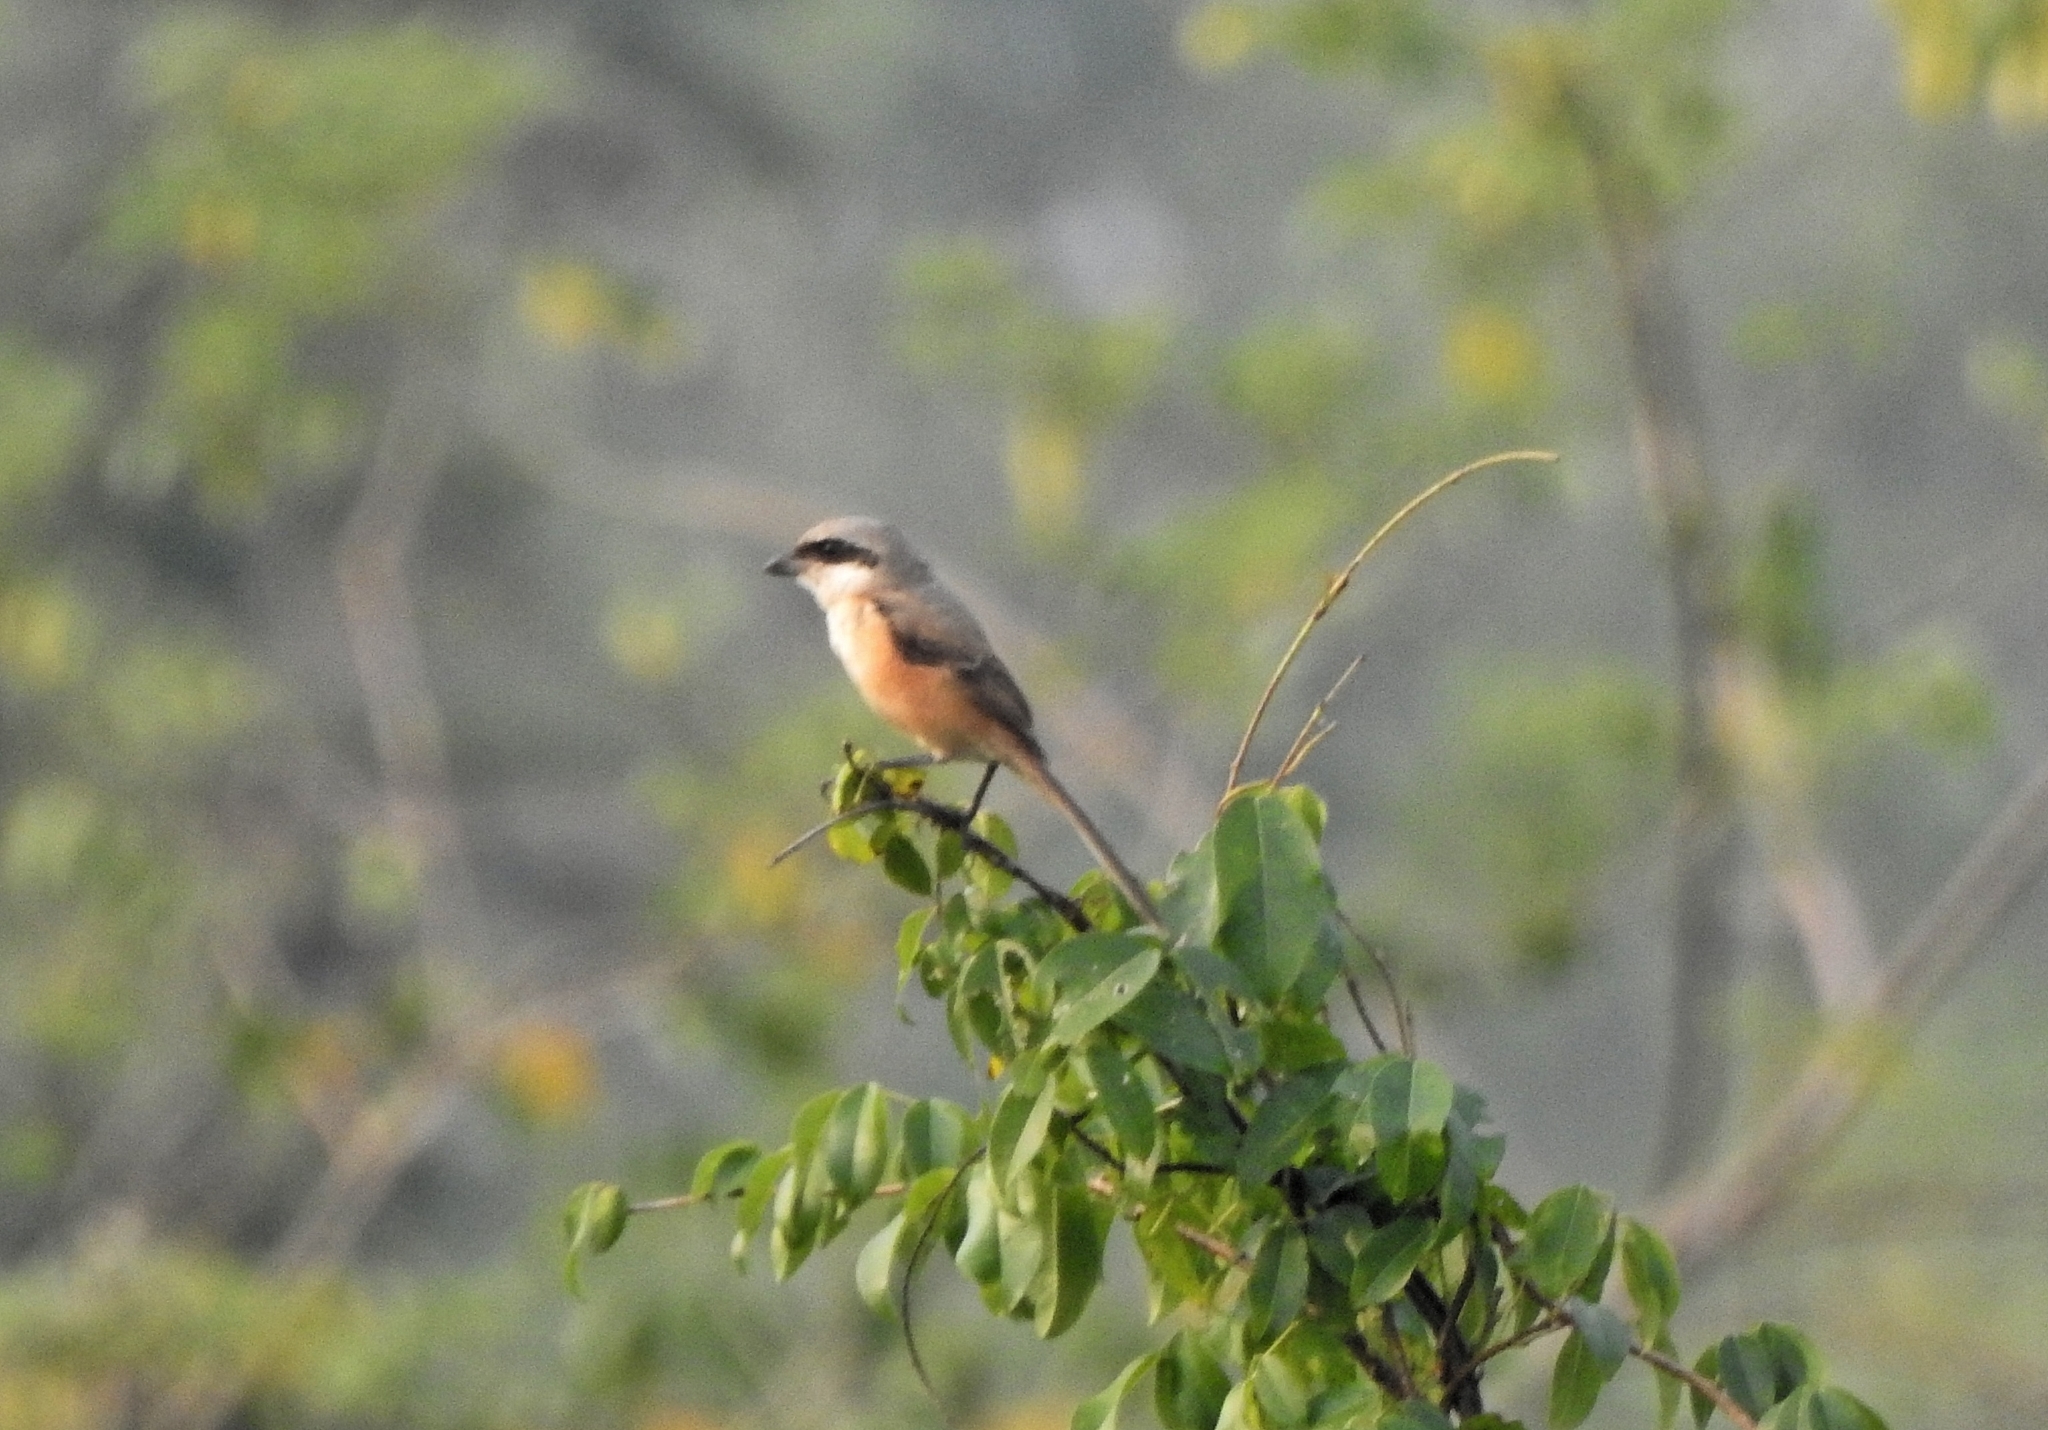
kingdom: Animalia
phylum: Chordata
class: Aves
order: Passeriformes
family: Laniidae
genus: Lanius
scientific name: Lanius schach
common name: Long-tailed shrike
